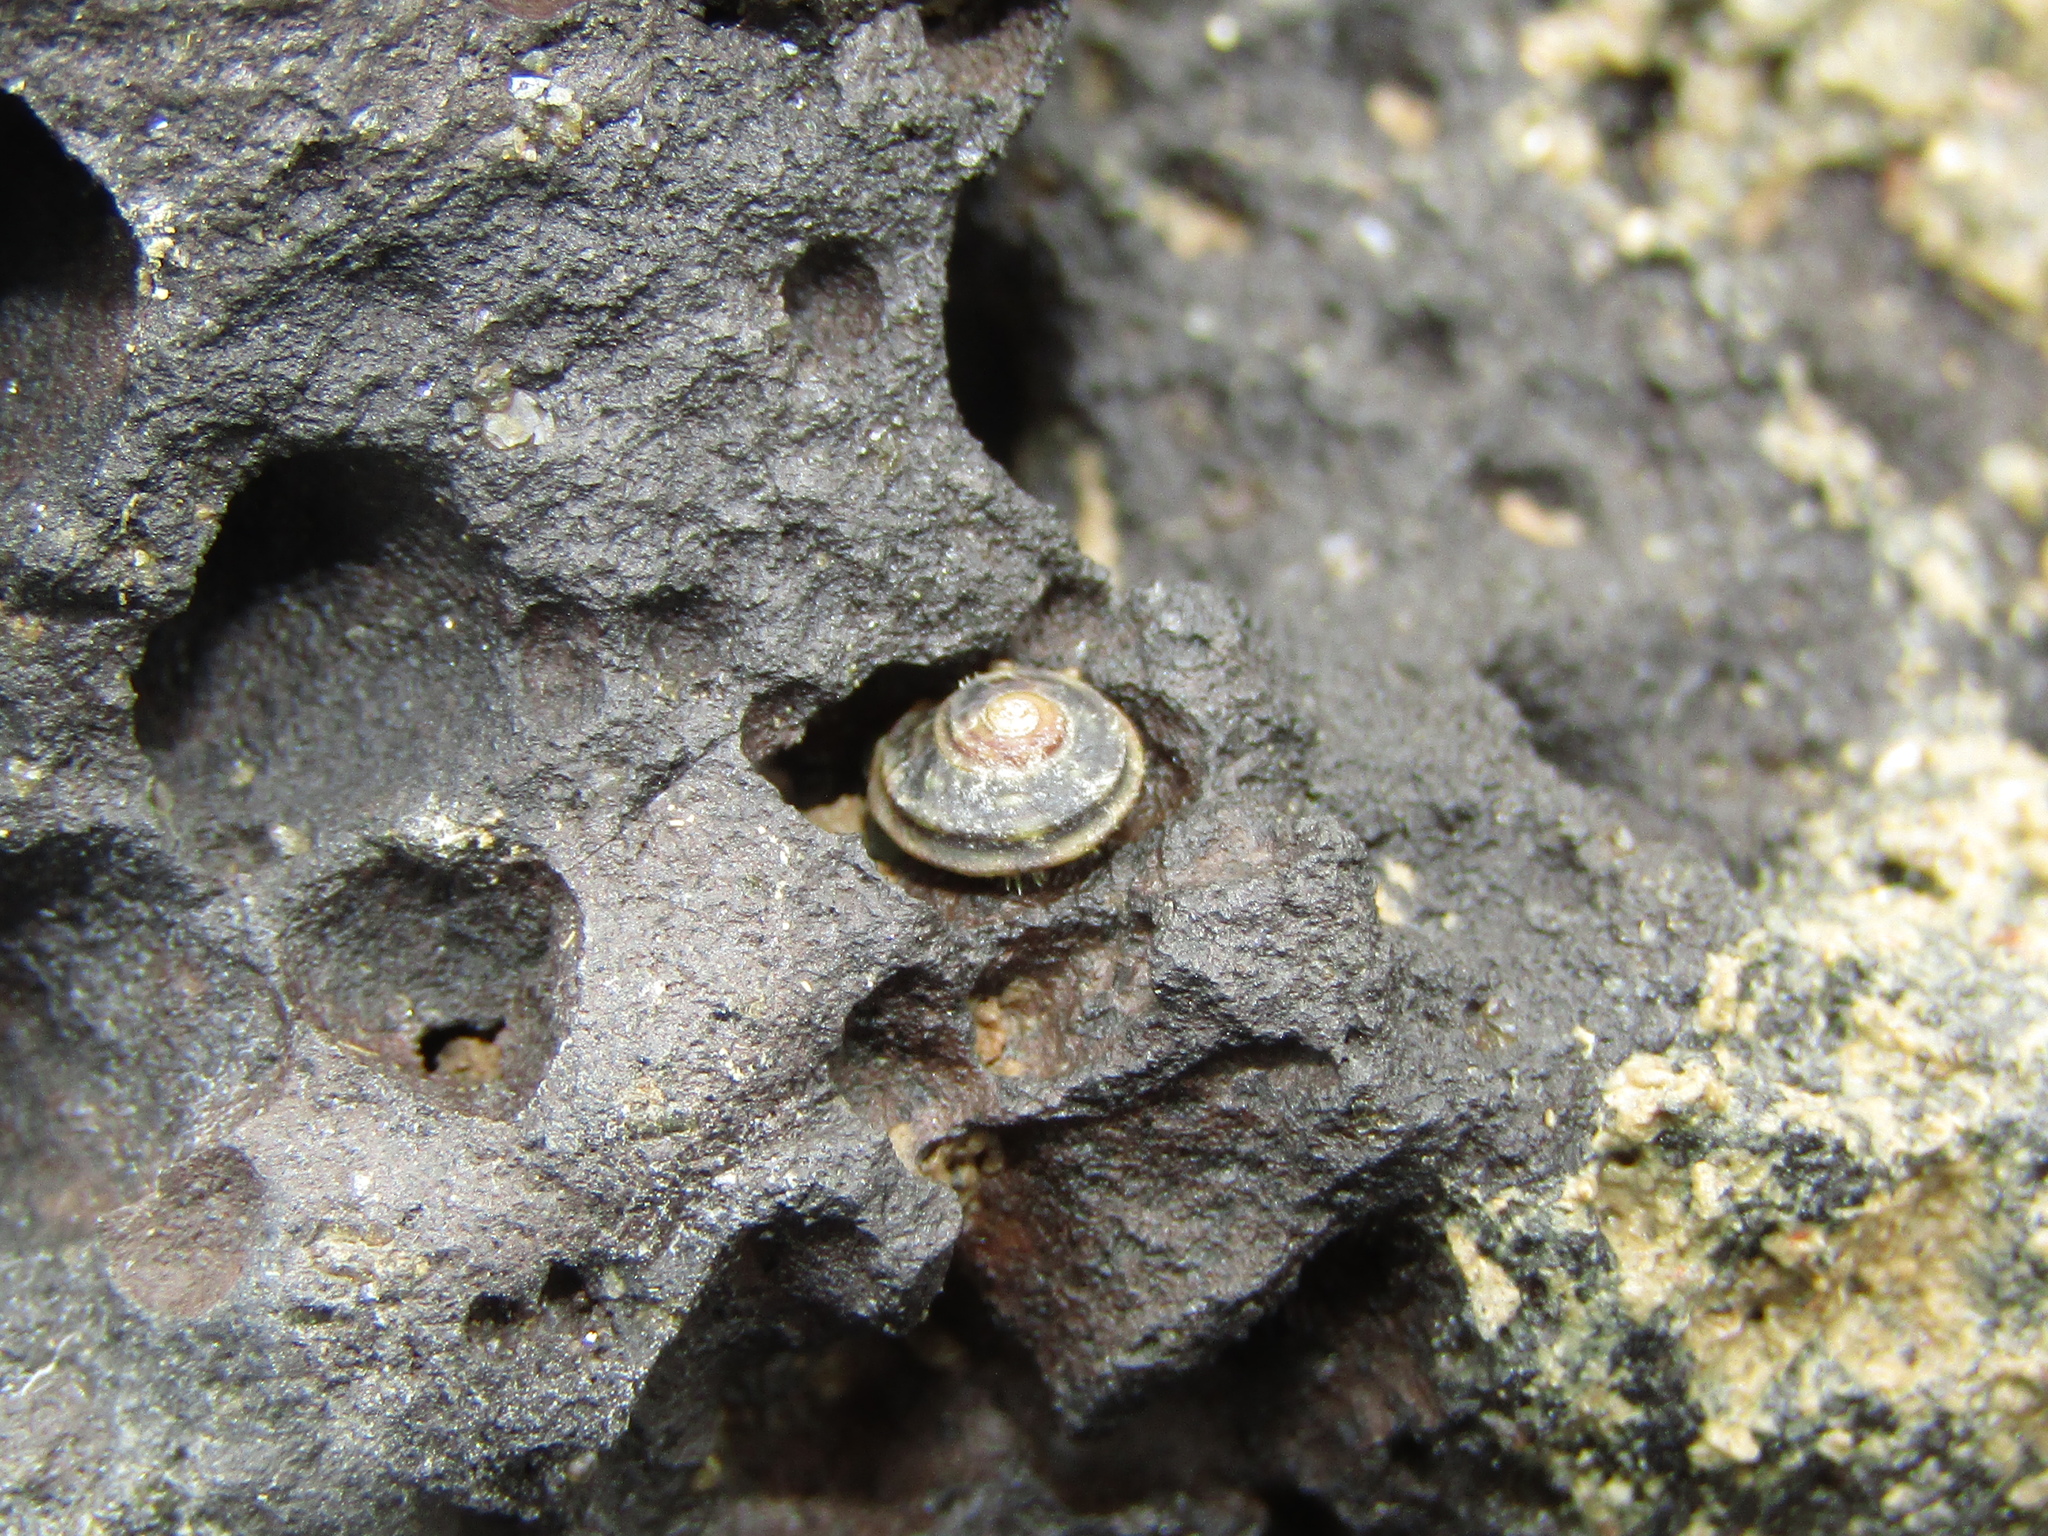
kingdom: Animalia
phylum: Mollusca
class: Gastropoda
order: Littorinimorpha
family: Littorinidae
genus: Risellopsis
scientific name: Risellopsis varia
